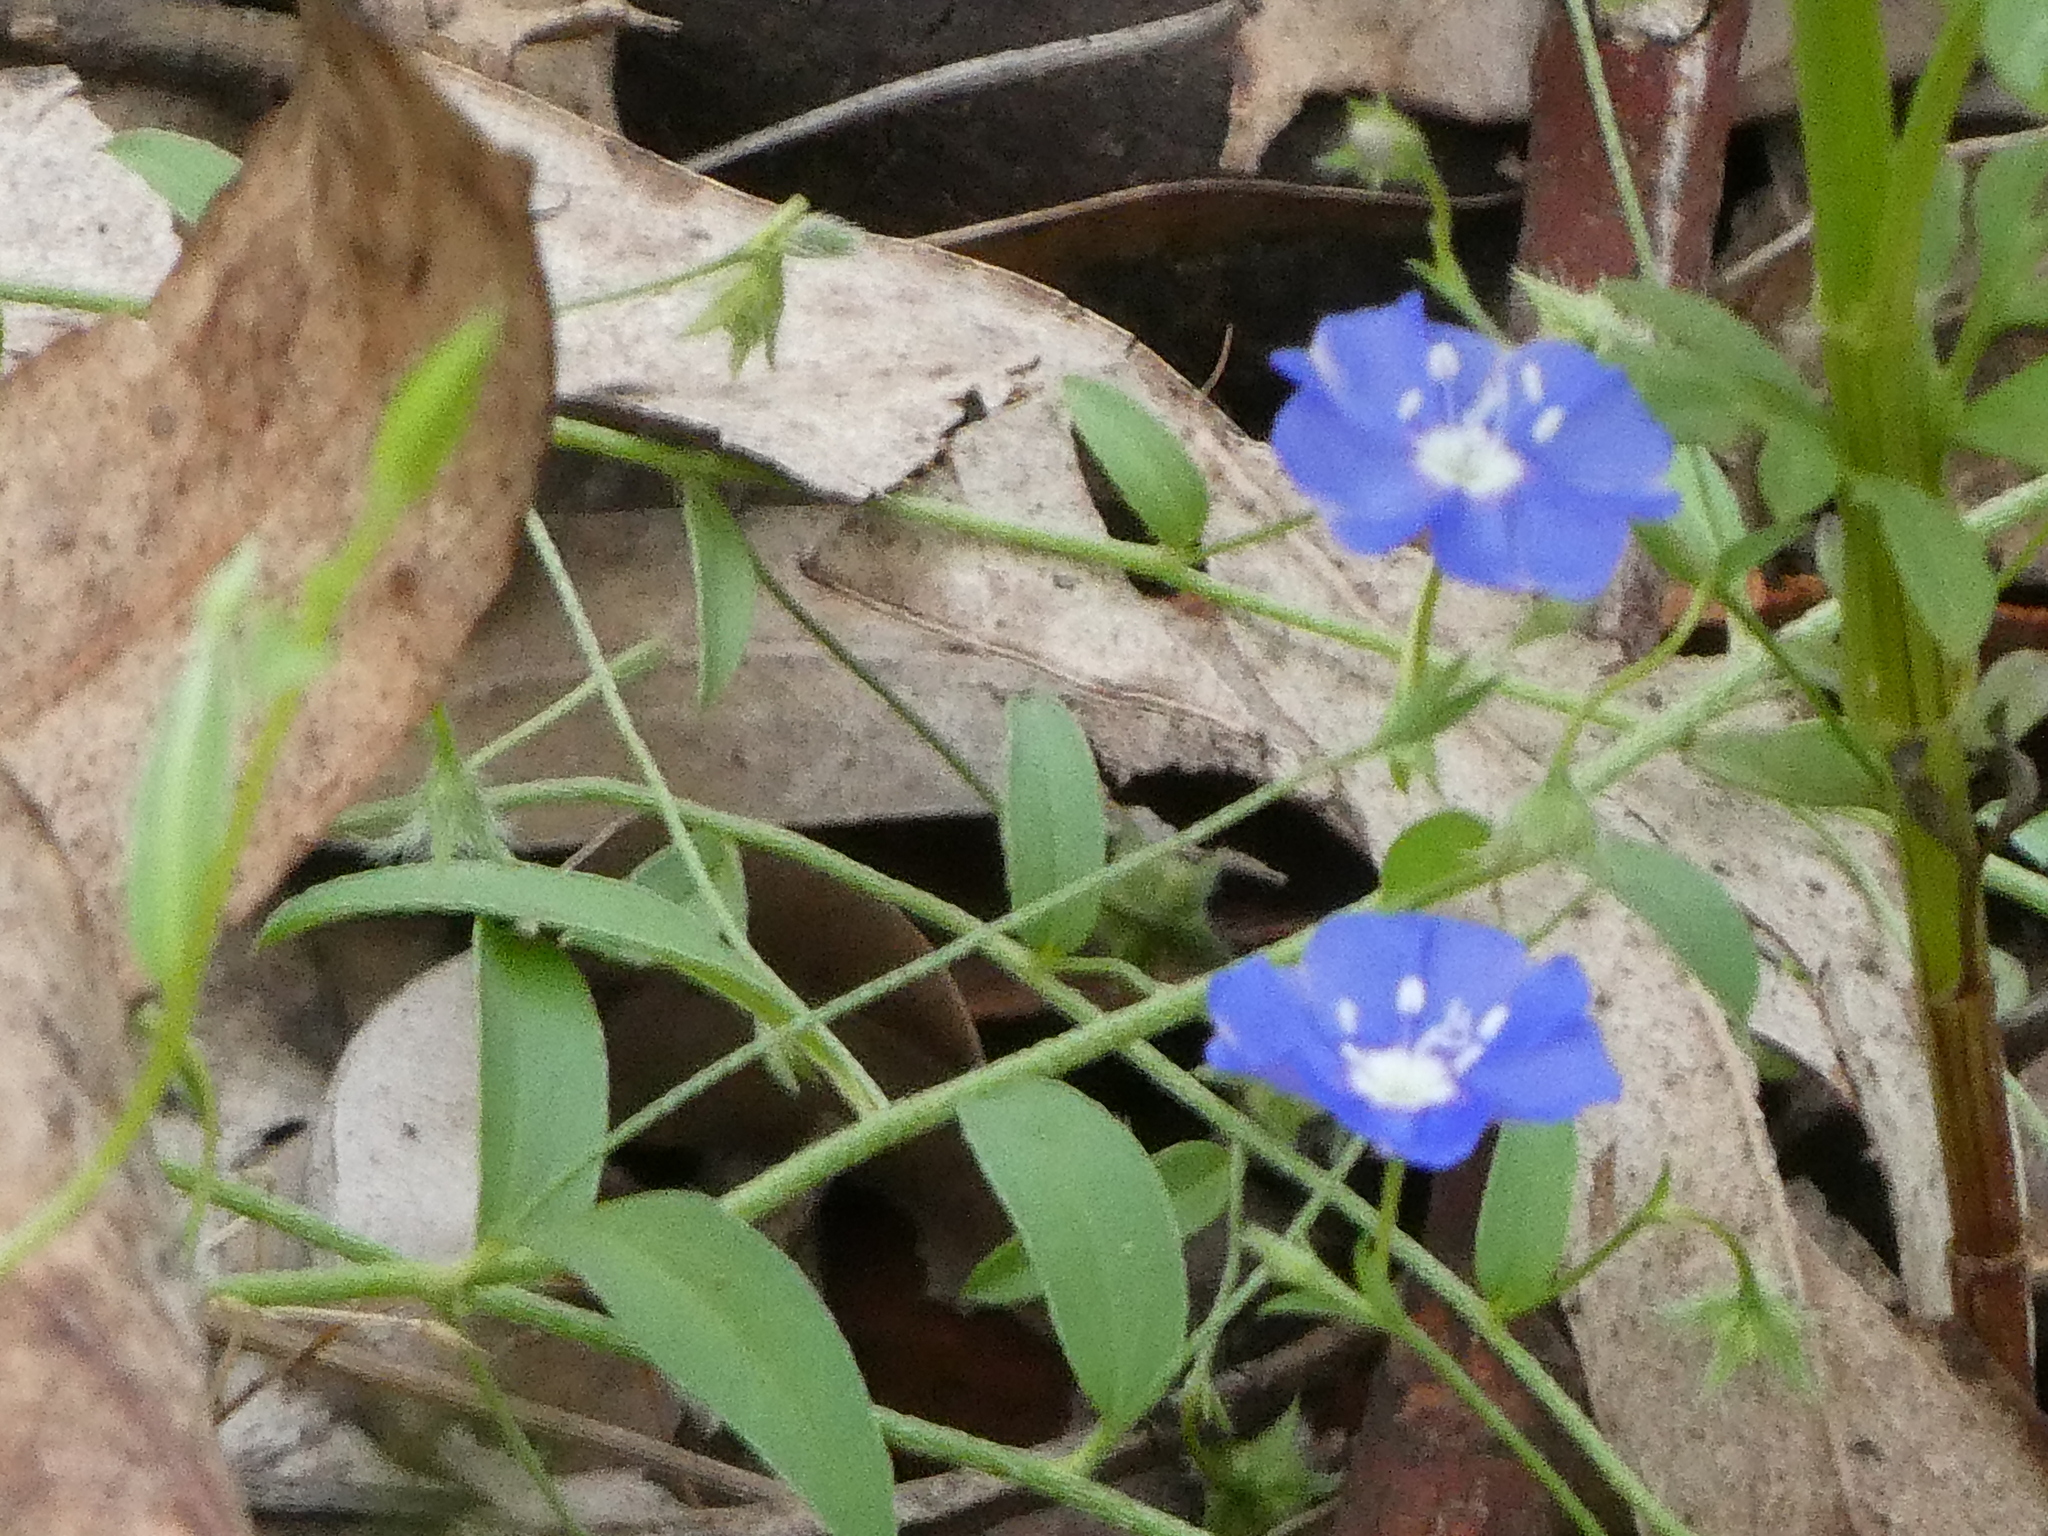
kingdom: Plantae
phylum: Tracheophyta
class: Magnoliopsida
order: Solanales
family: Convolvulaceae
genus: Evolvulus
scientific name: Evolvulus alsinoides
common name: Slender dwarf morning-glory
